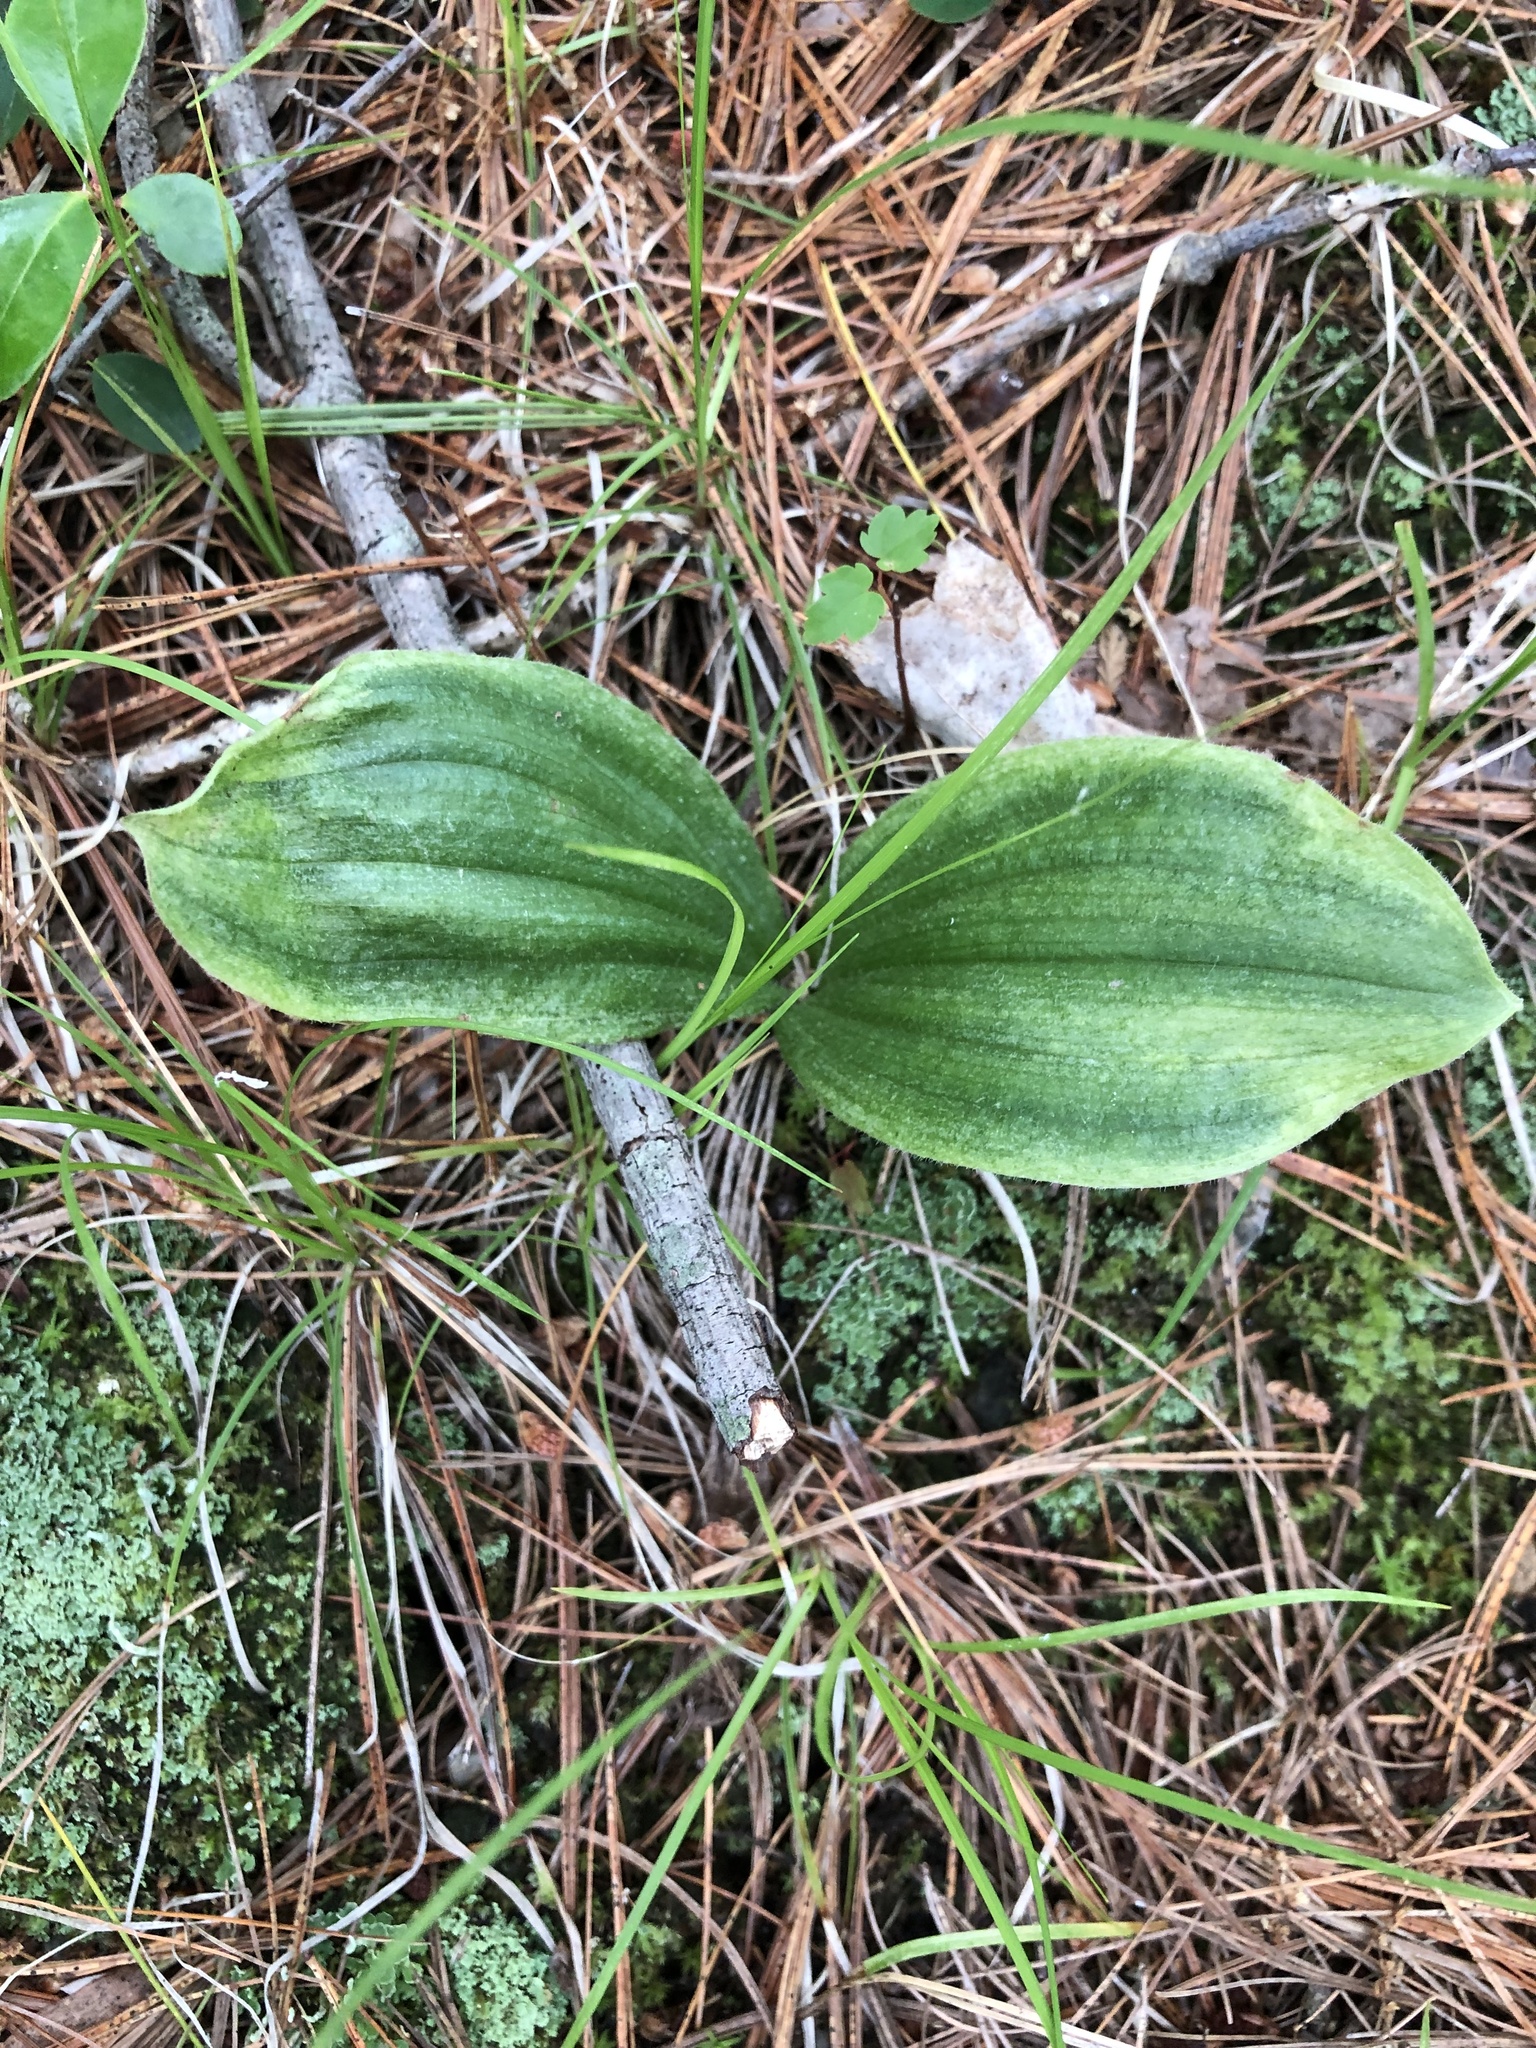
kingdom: Plantae
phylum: Tracheophyta
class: Liliopsida
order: Asparagales
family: Orchidaceae
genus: Cypripedium
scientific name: Cypripedium acaule
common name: Pink lady's-slipper
